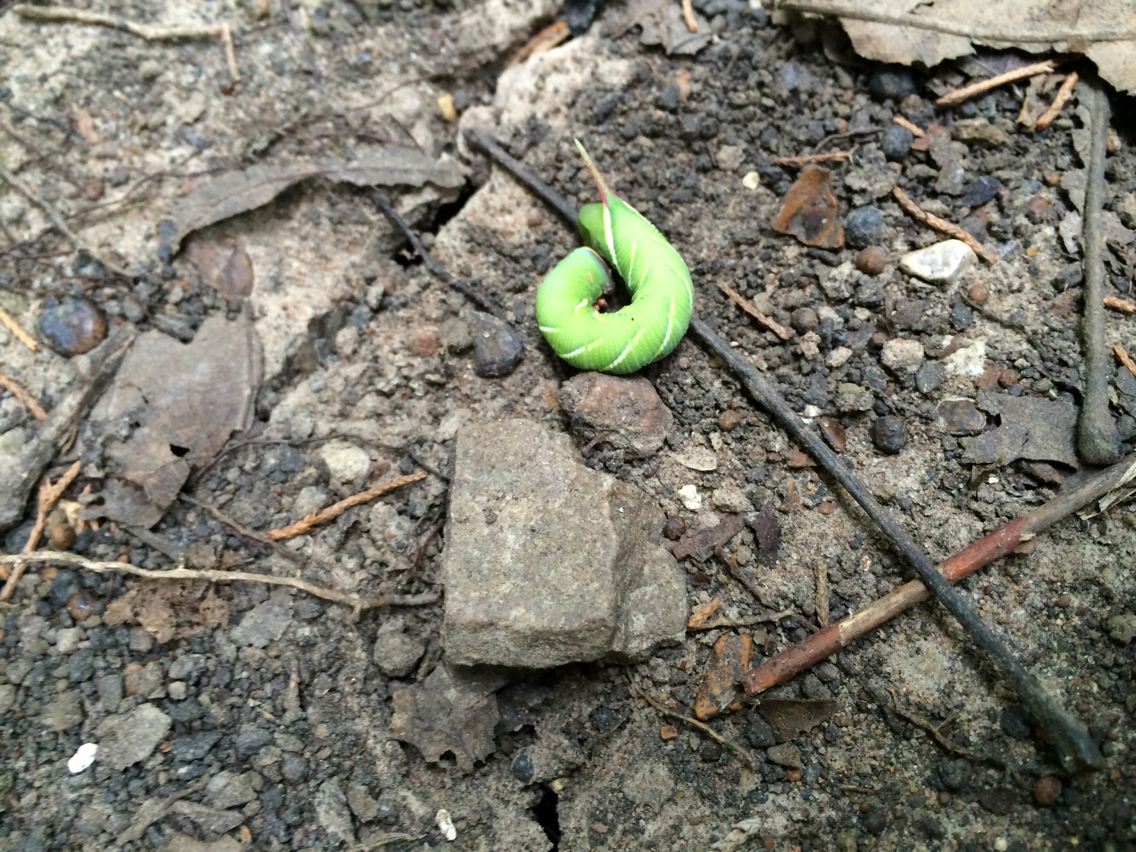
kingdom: Animalia
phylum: Arthropoda
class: Insecta
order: Lepidoptera
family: Sphingidae
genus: Manduca
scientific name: Manduca sexta
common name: Carolina sphinx
